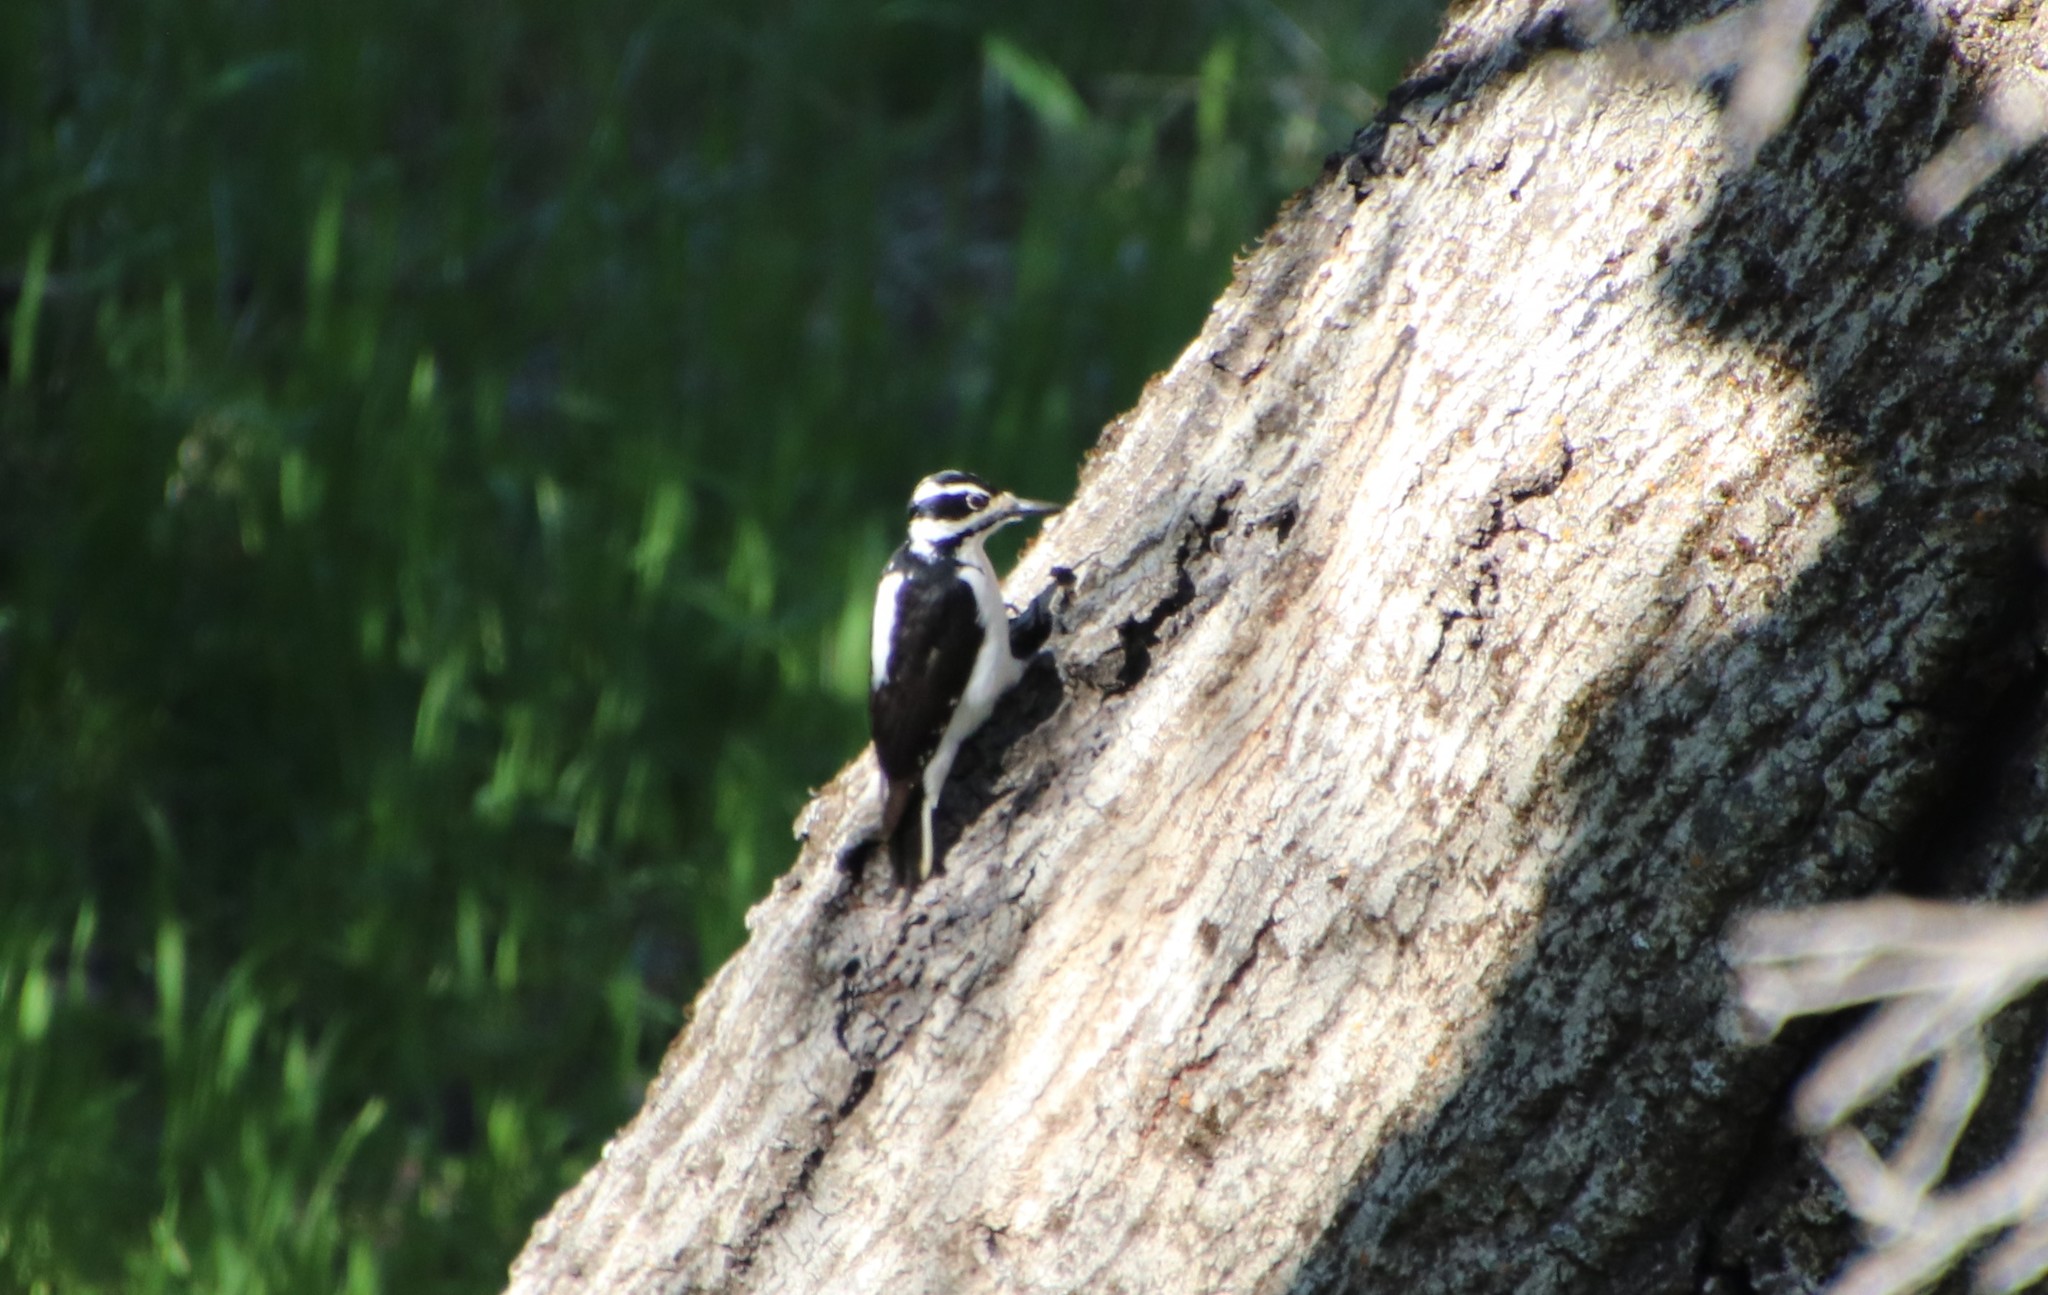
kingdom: Animalia
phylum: Chordata
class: Aves
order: Piciformes
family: Picidae
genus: Leuconotopicus
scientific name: Leuconotopicus villosus
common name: Hairy woodpecker
